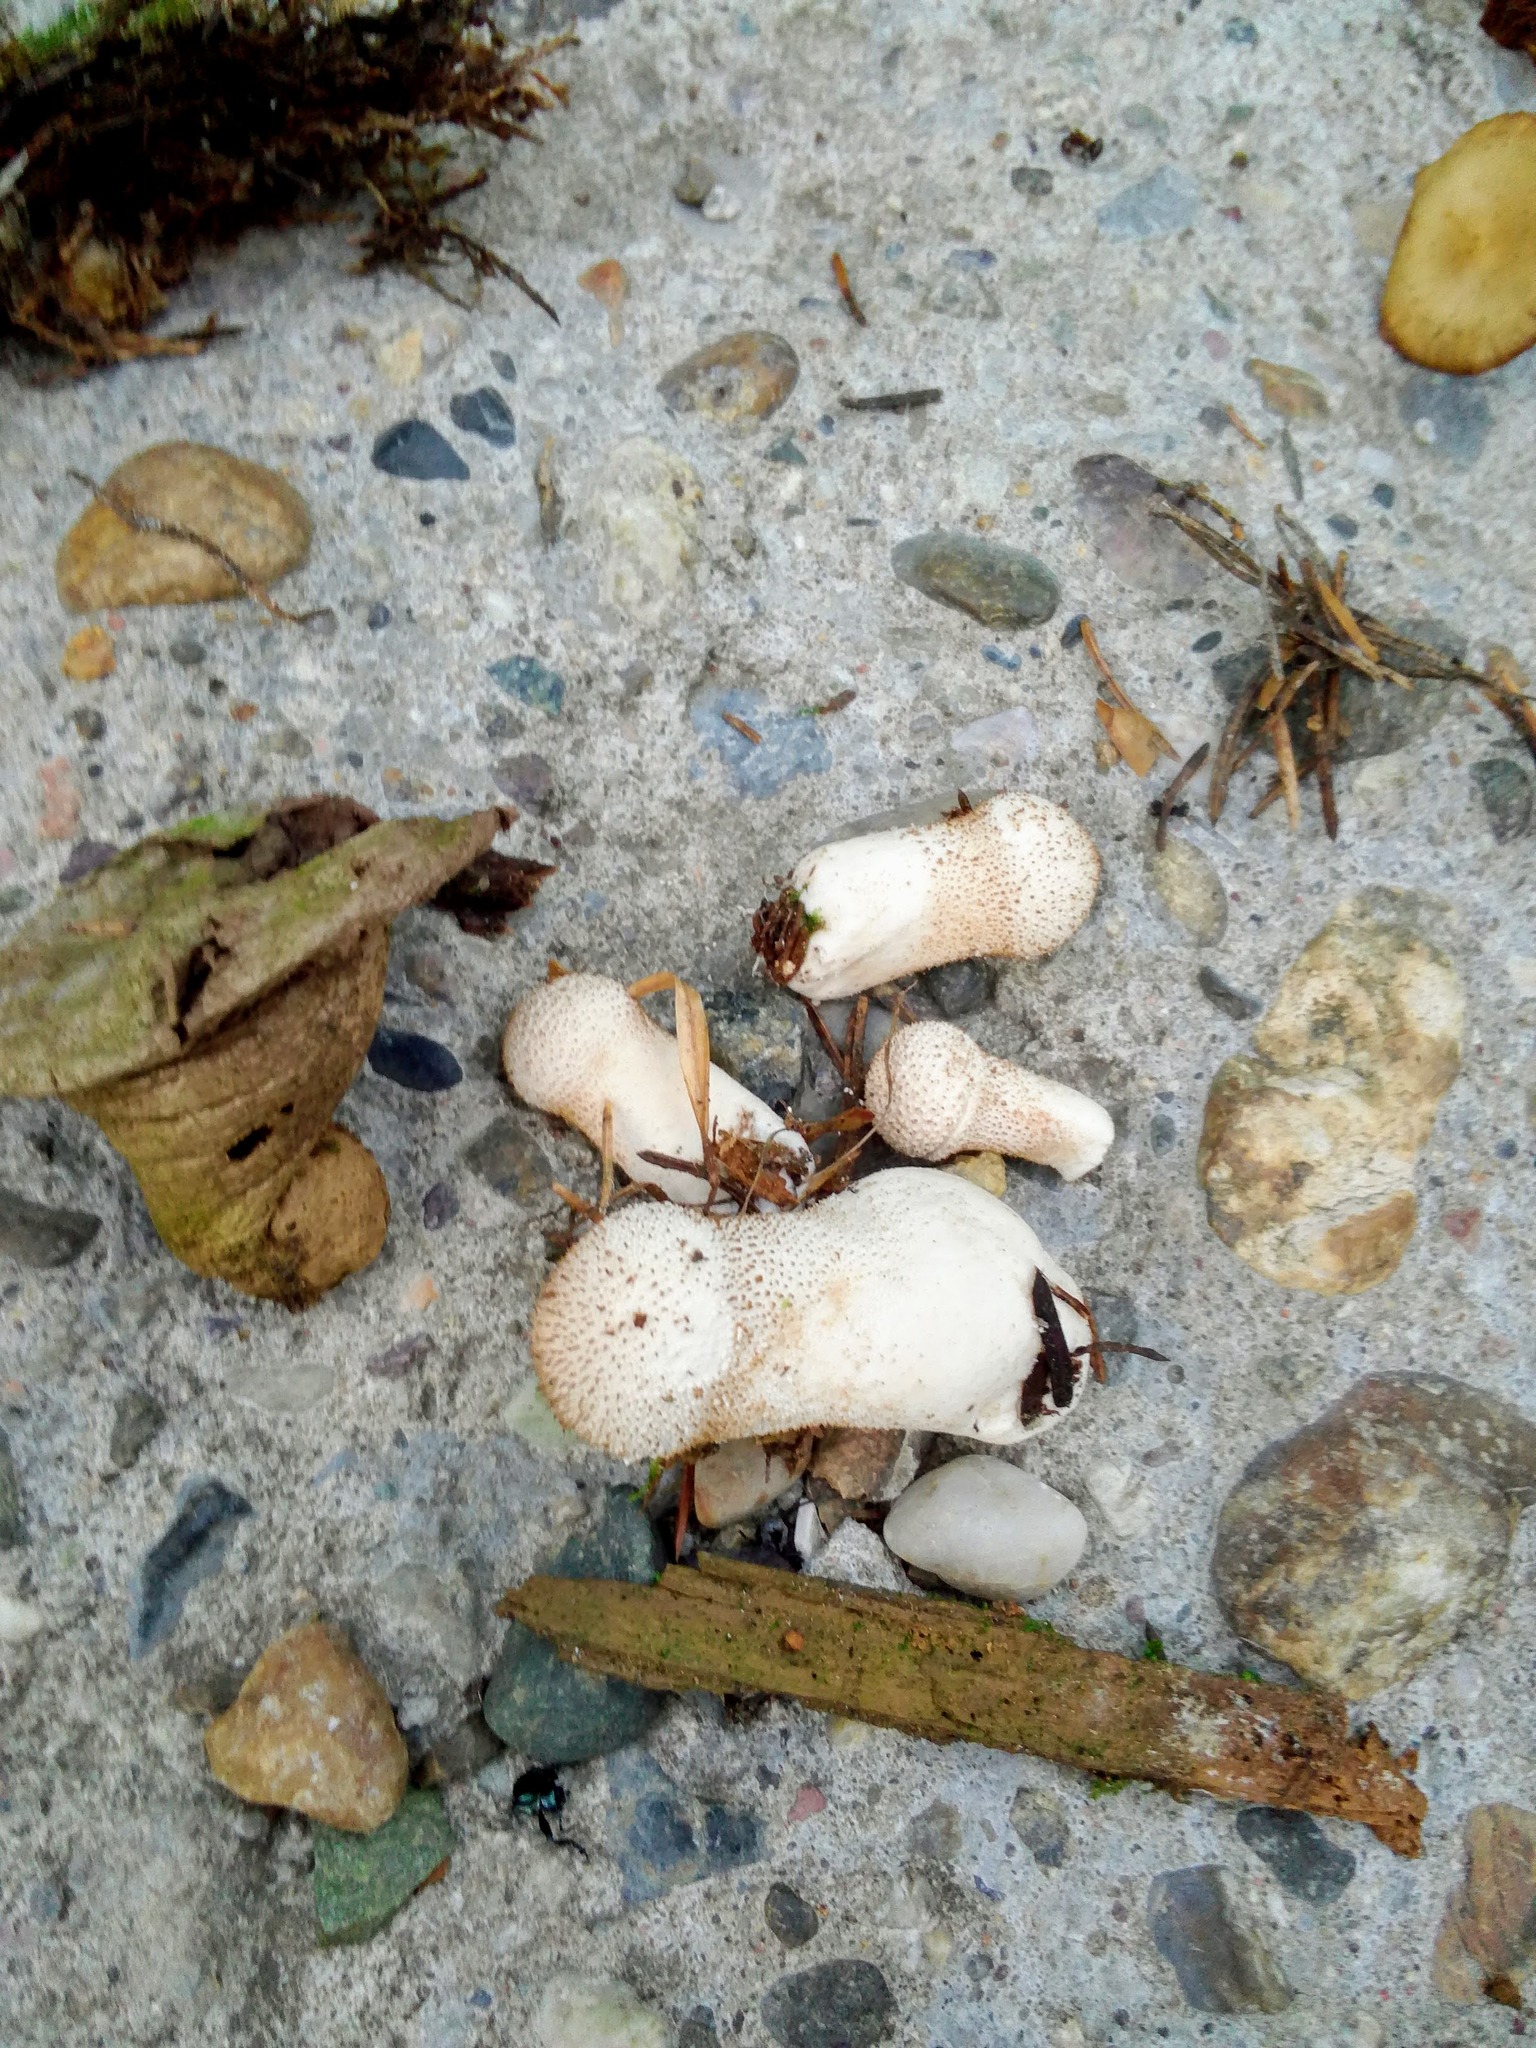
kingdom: Fungi
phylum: Basidiomycota
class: Agaricomycetes
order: Agaricales
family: Lycoperdaceae
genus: Lycoperdon
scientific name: Lycoperdon perlatum
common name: Common puffball
